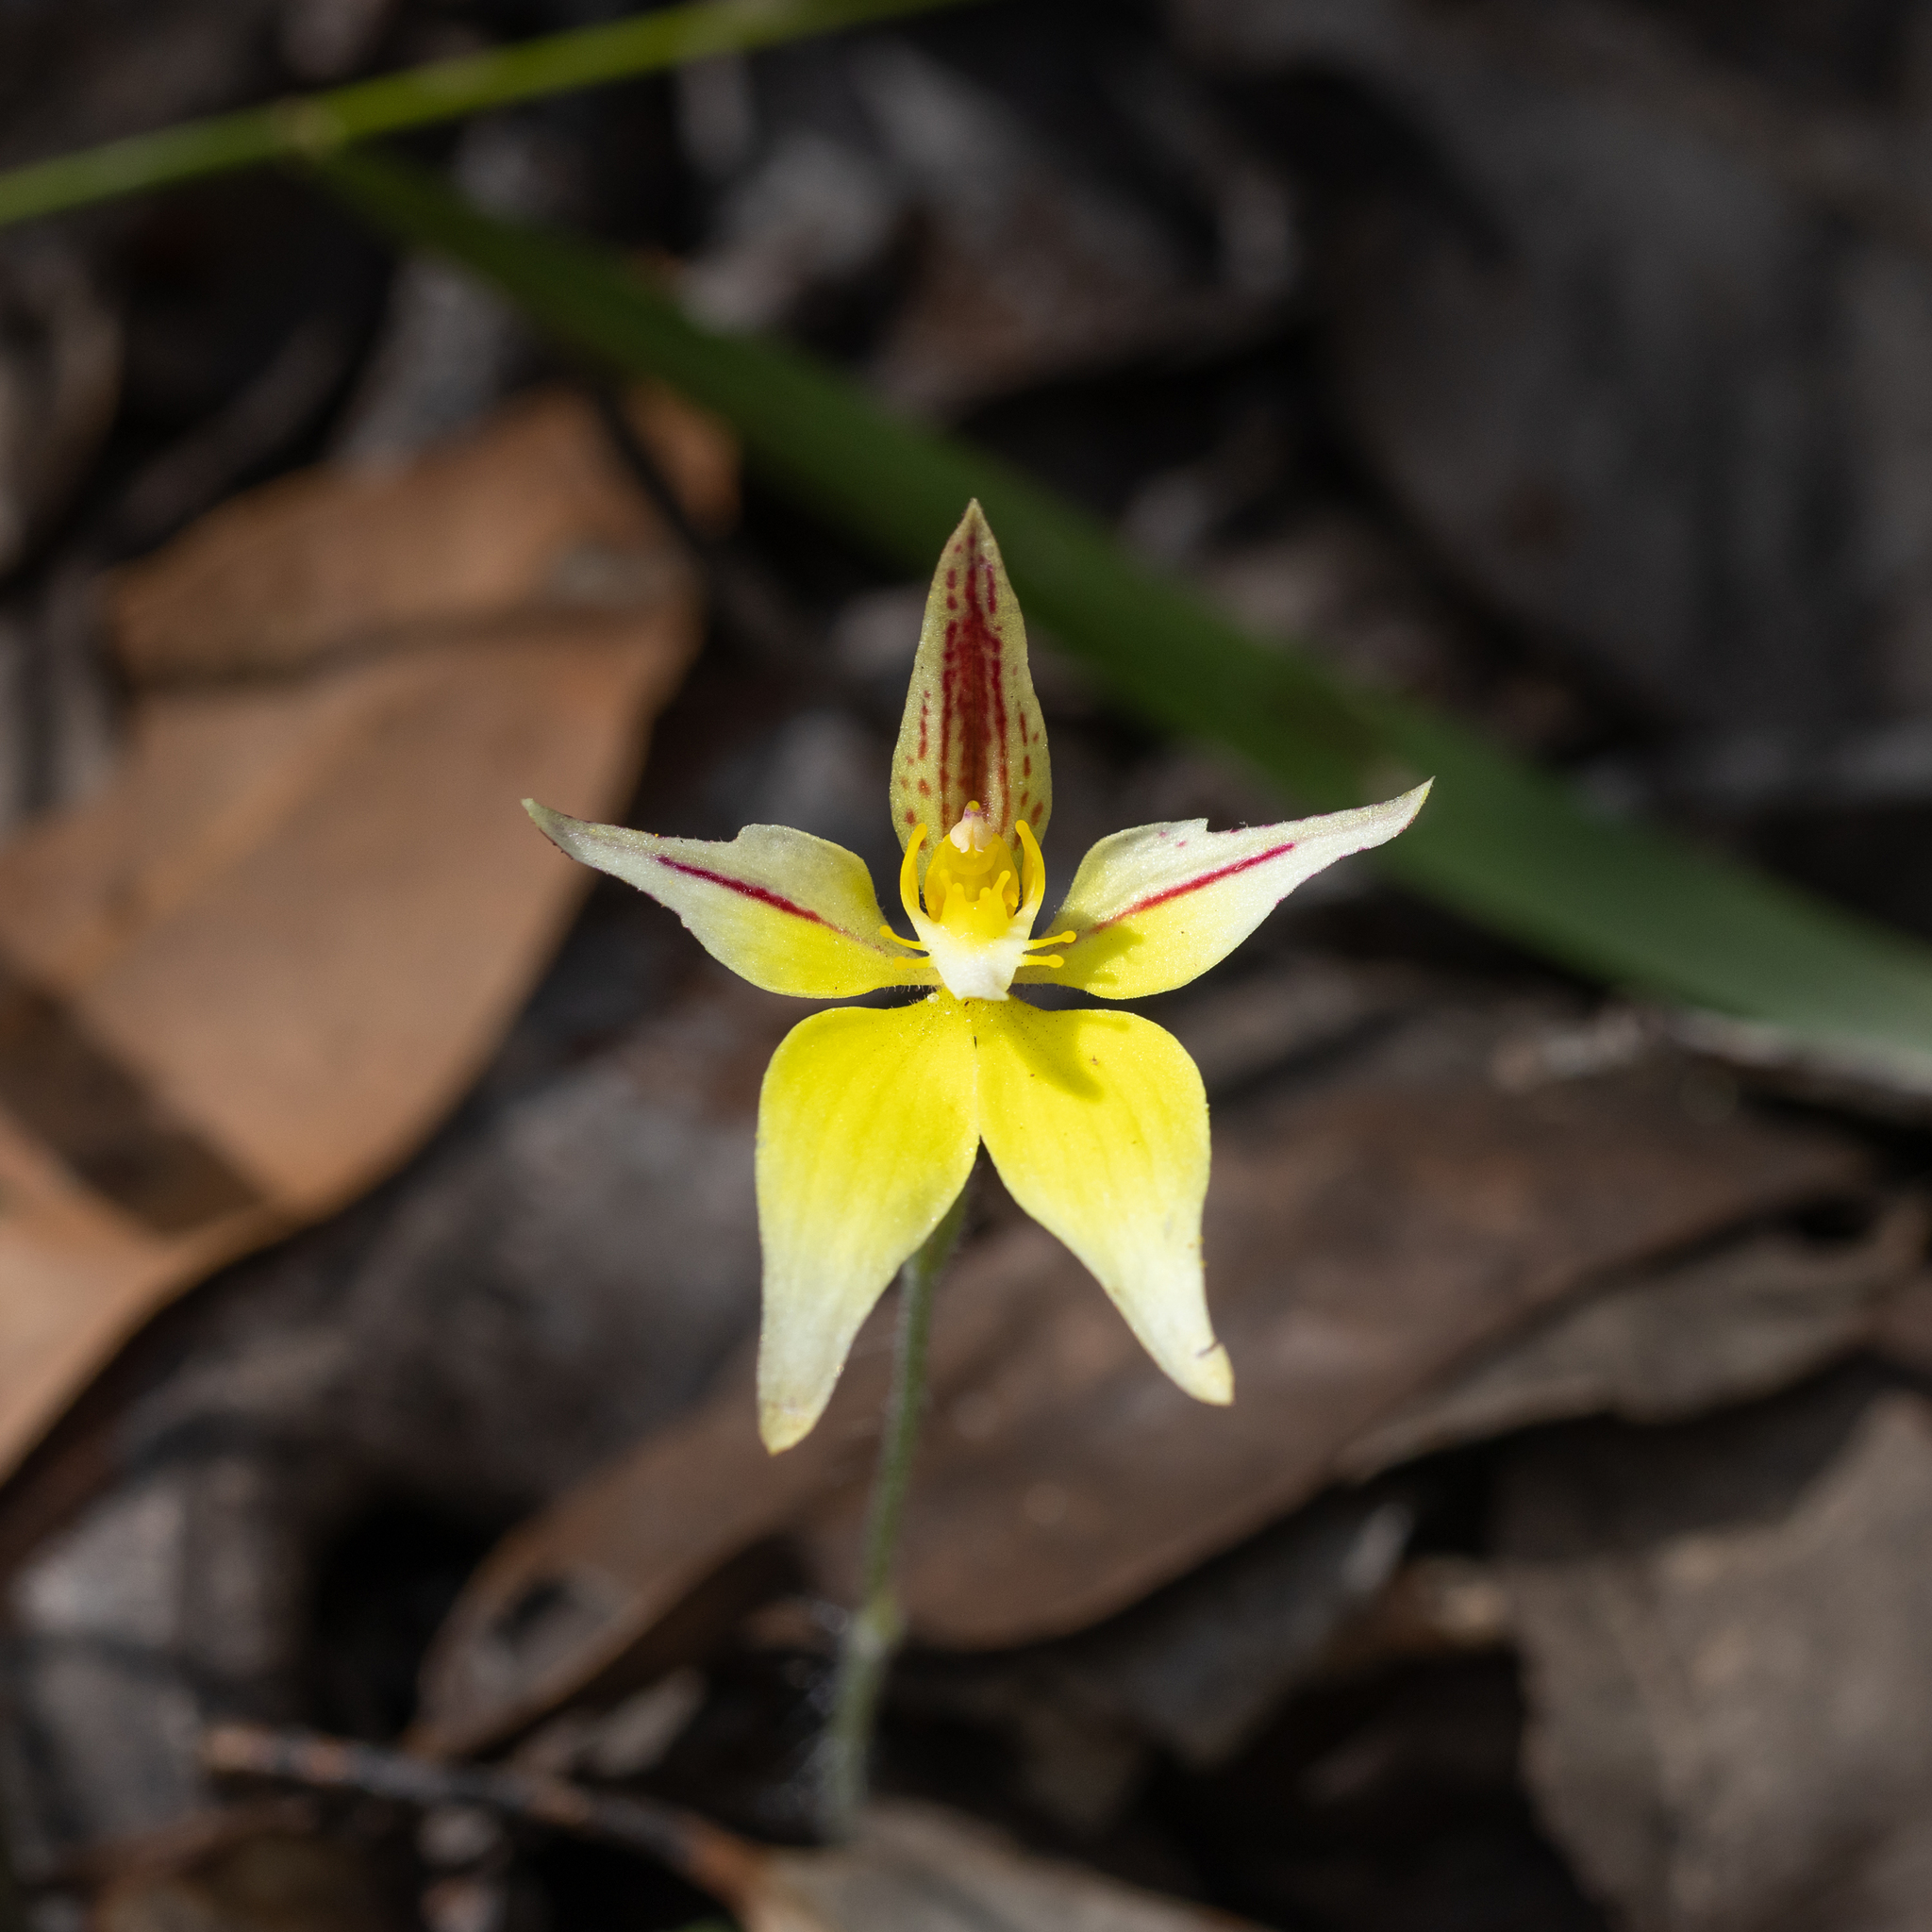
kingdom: Plantae
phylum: Tracheophyta
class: Liliopsida
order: Asparagales
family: Orchidaceae
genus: Caladenia
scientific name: Caladenia flava
